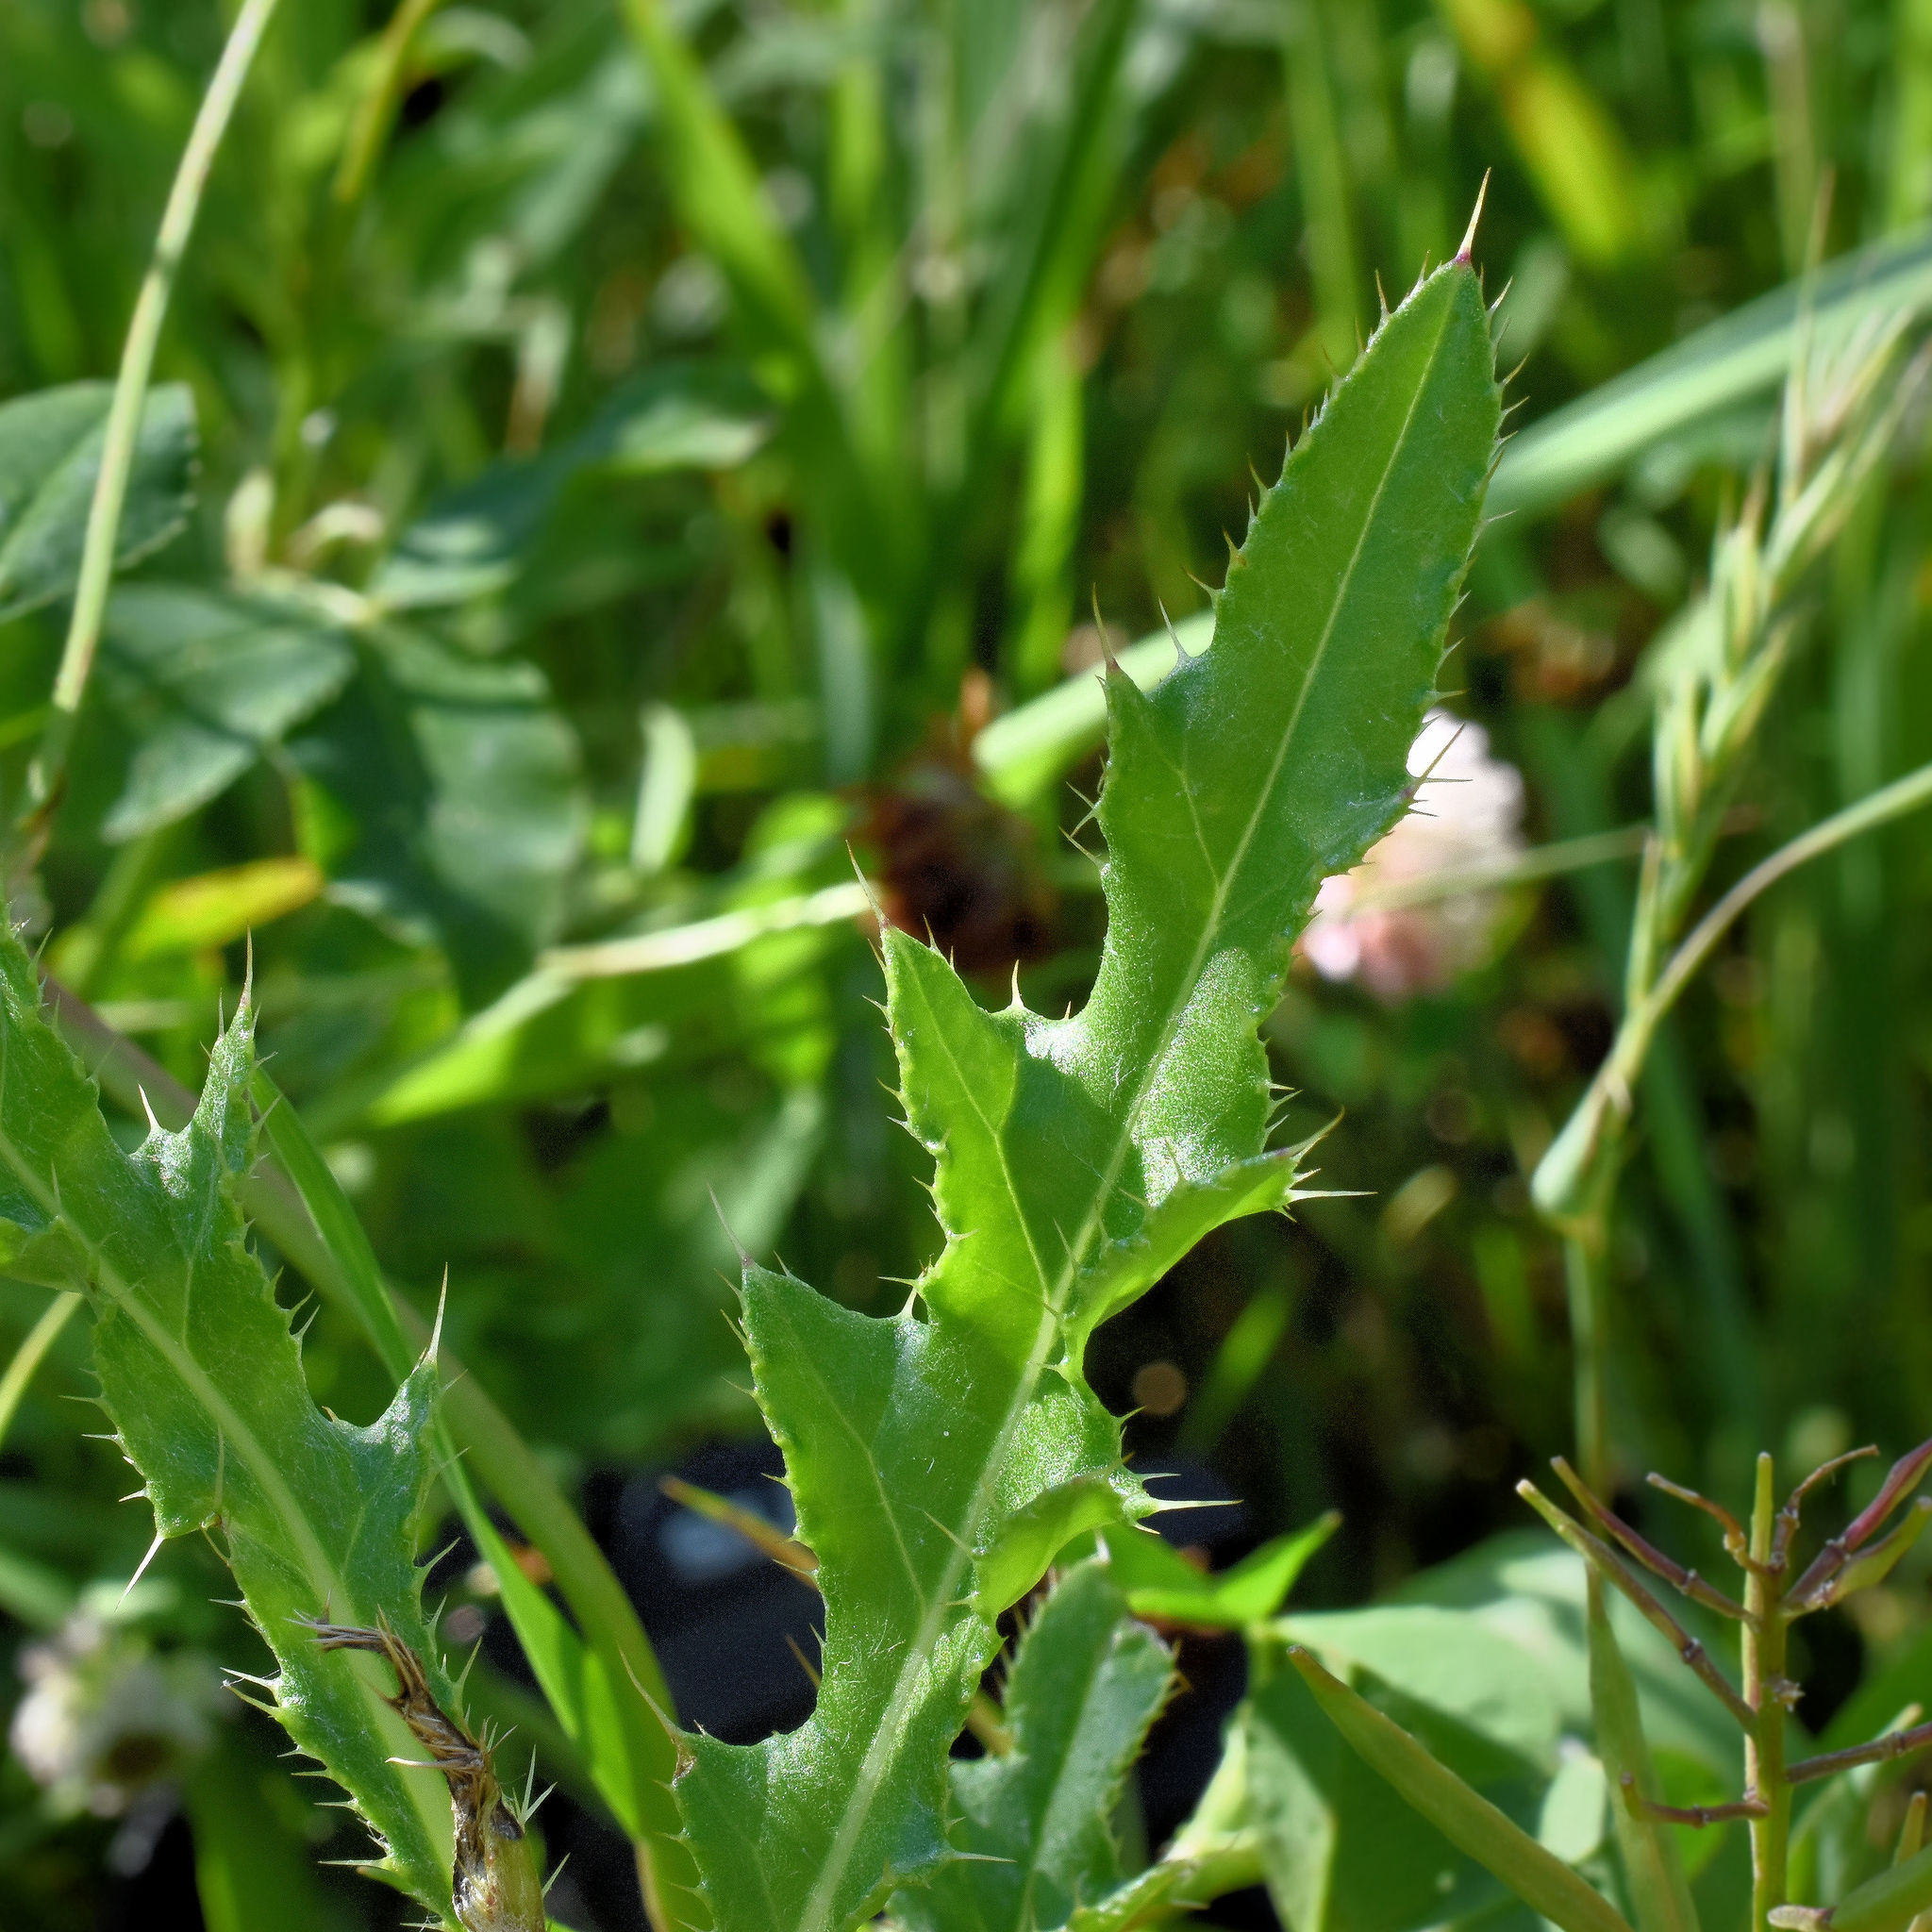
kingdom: Plantae
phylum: Tracheophyta
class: Magnoliopsida
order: Asterales
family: Asteraceae
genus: Cirsium
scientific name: Cirsium arvense
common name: Creeping thistle
